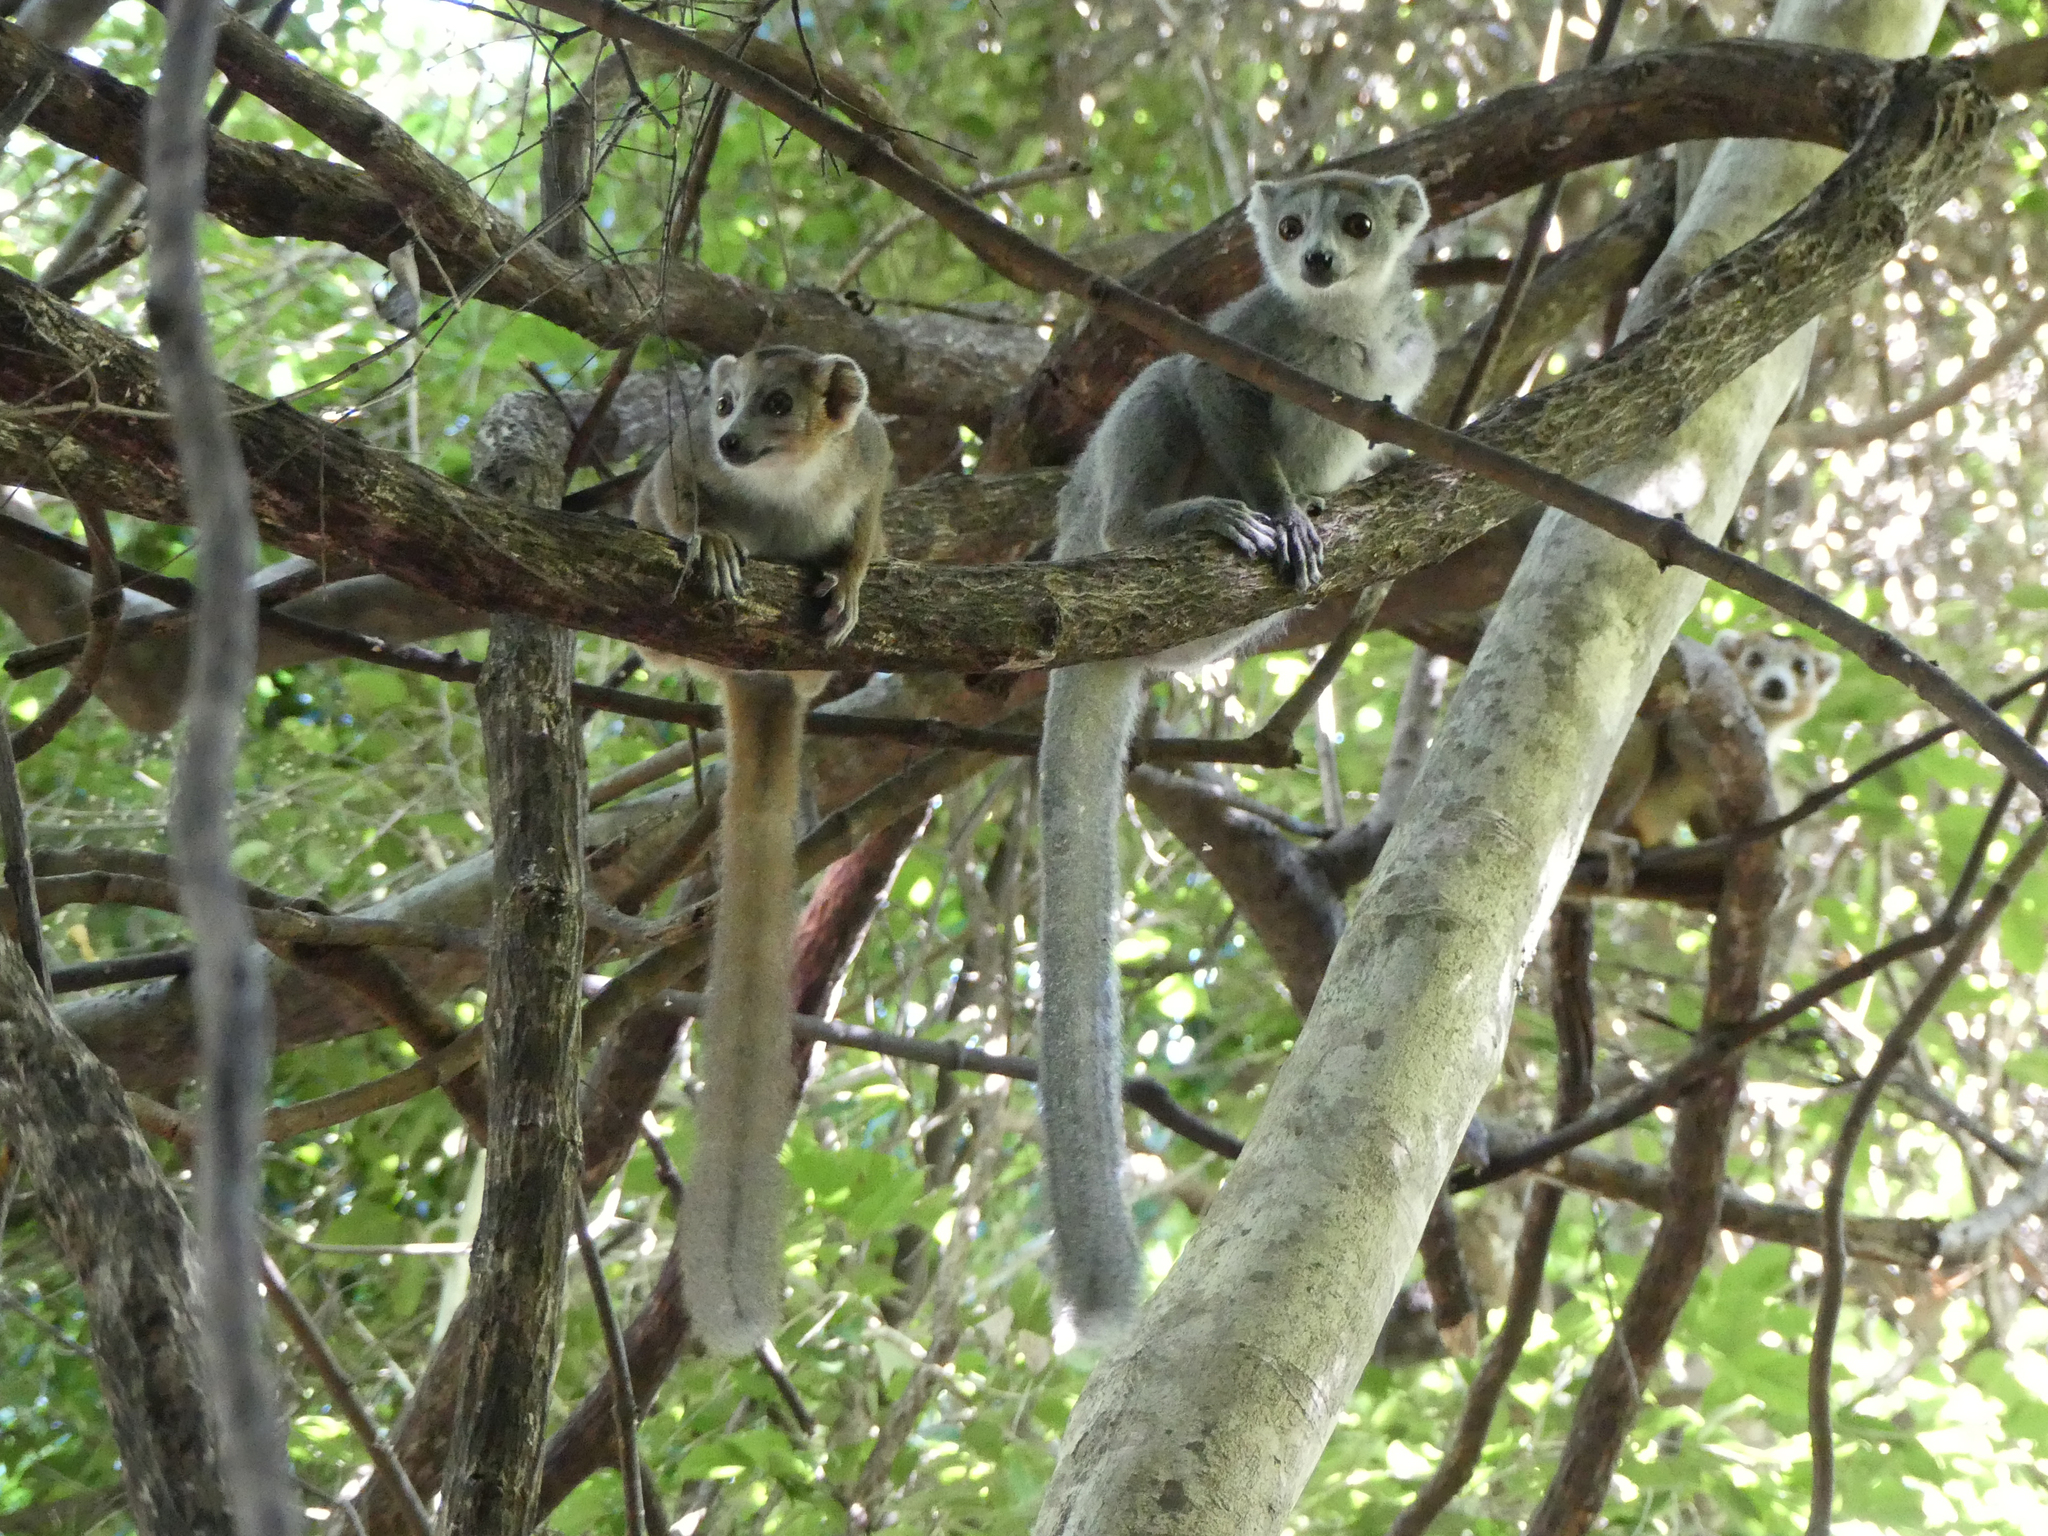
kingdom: Animalia
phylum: Chordata
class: Mammalia
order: Primates
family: Lemuridae
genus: Eulemur
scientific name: Eulemur coronatus
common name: Crowned lemur
